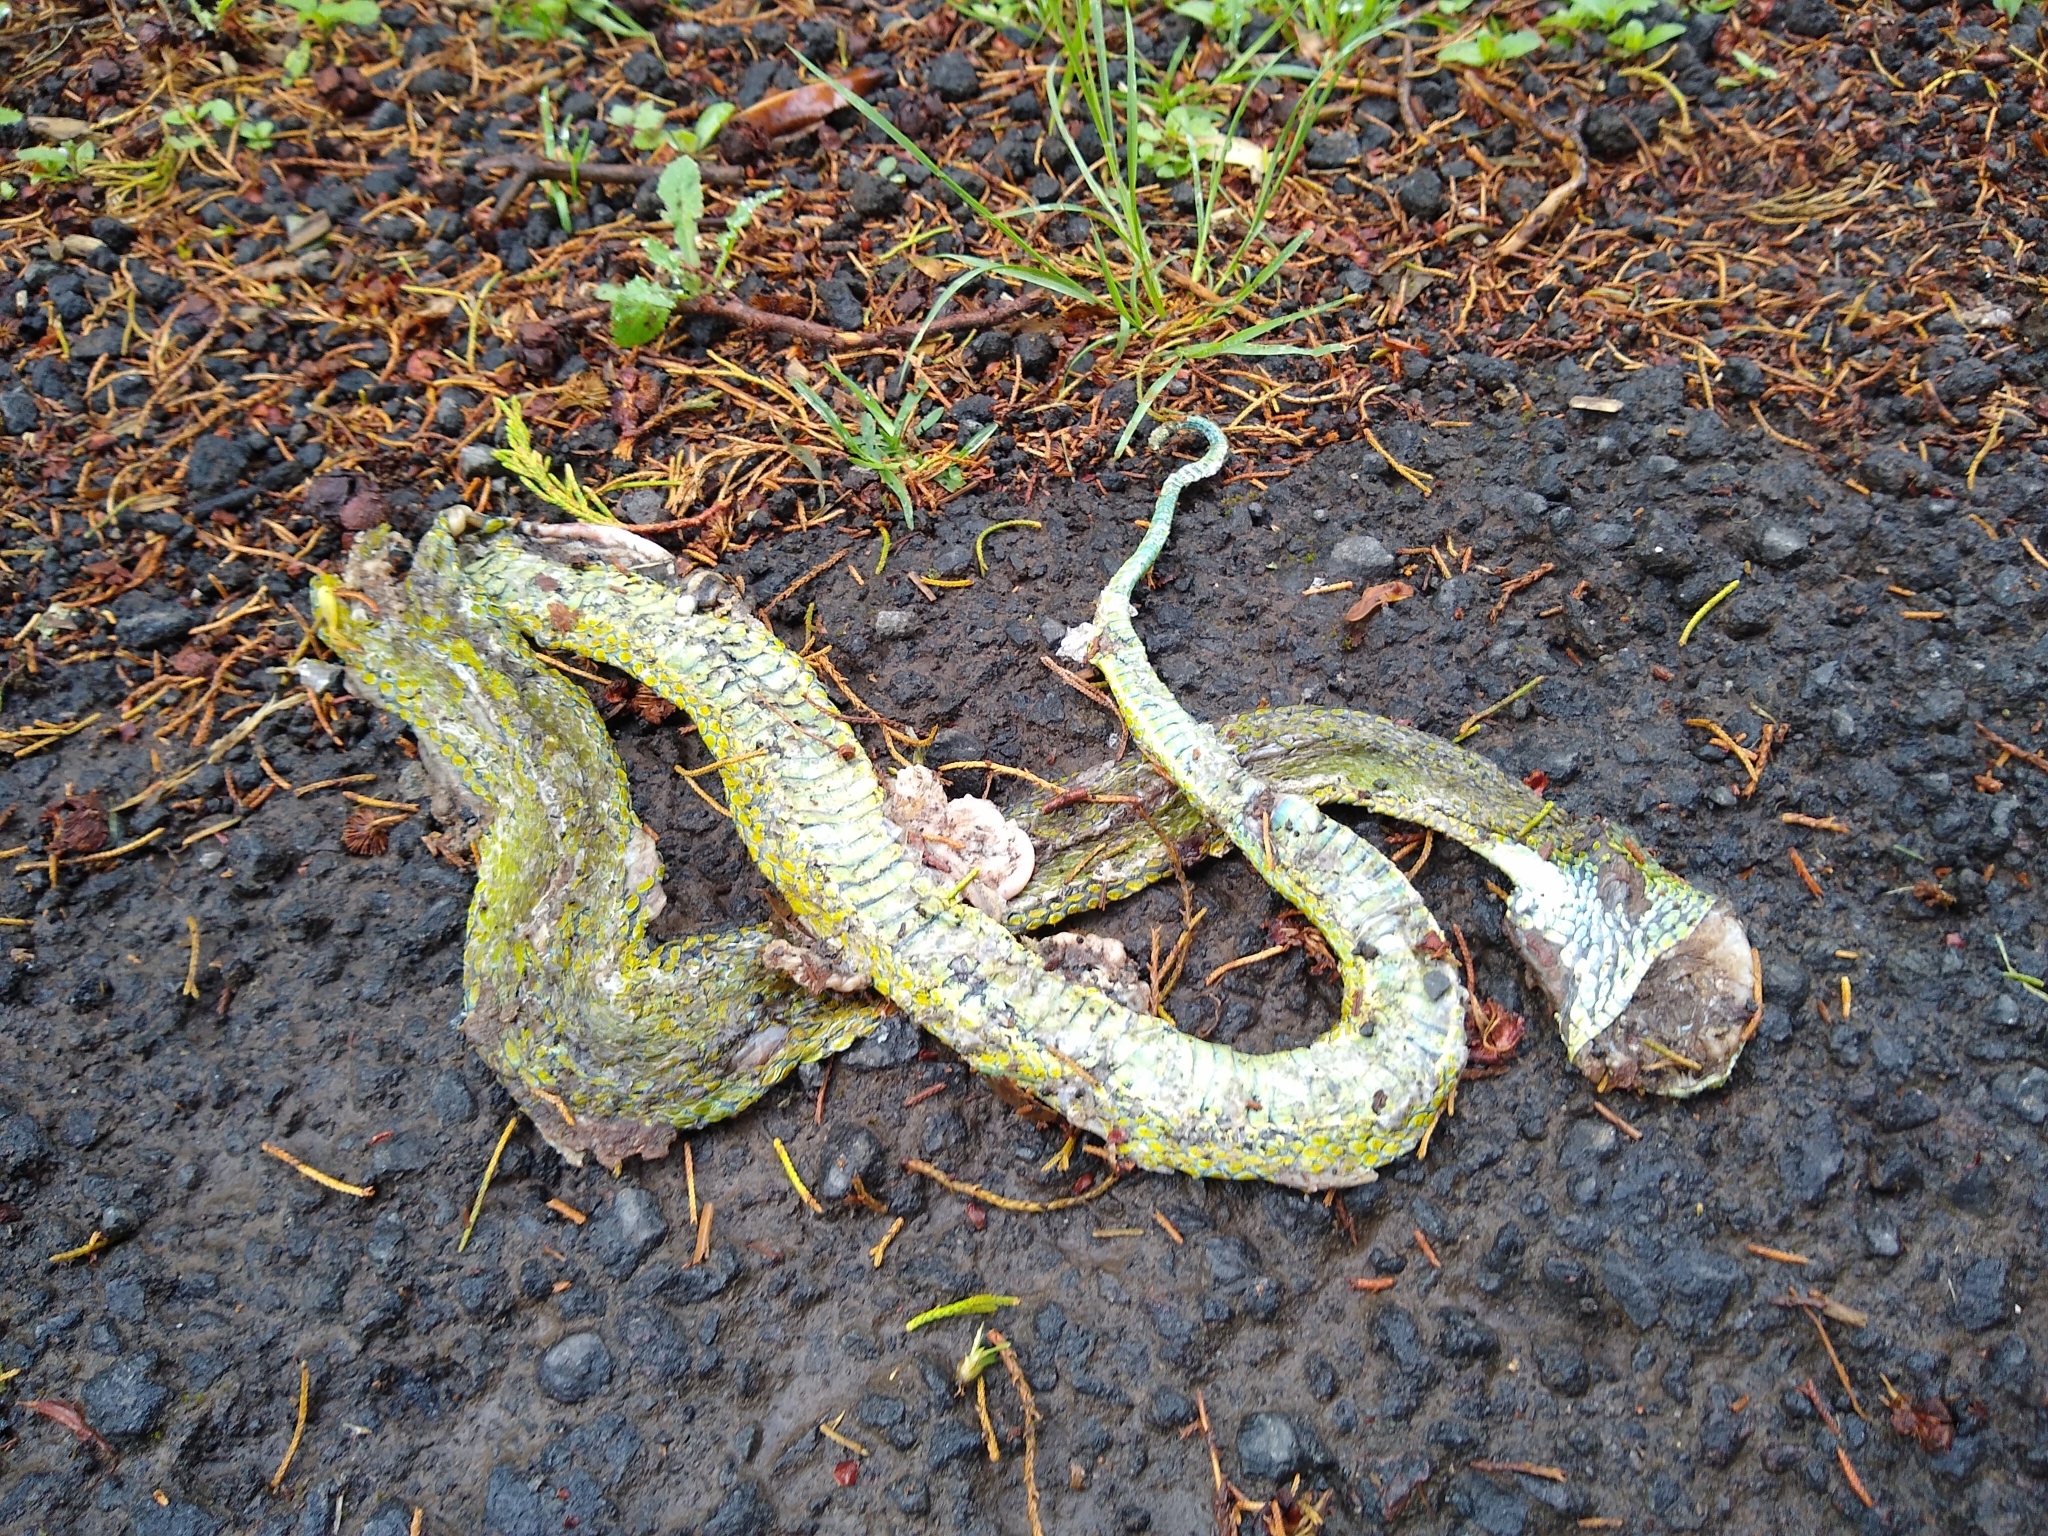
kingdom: Animalia
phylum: Chordata
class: Squamata
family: Viperidae
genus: Bothriechis
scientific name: Bothriechis lateralis
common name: Coffee palm viper
